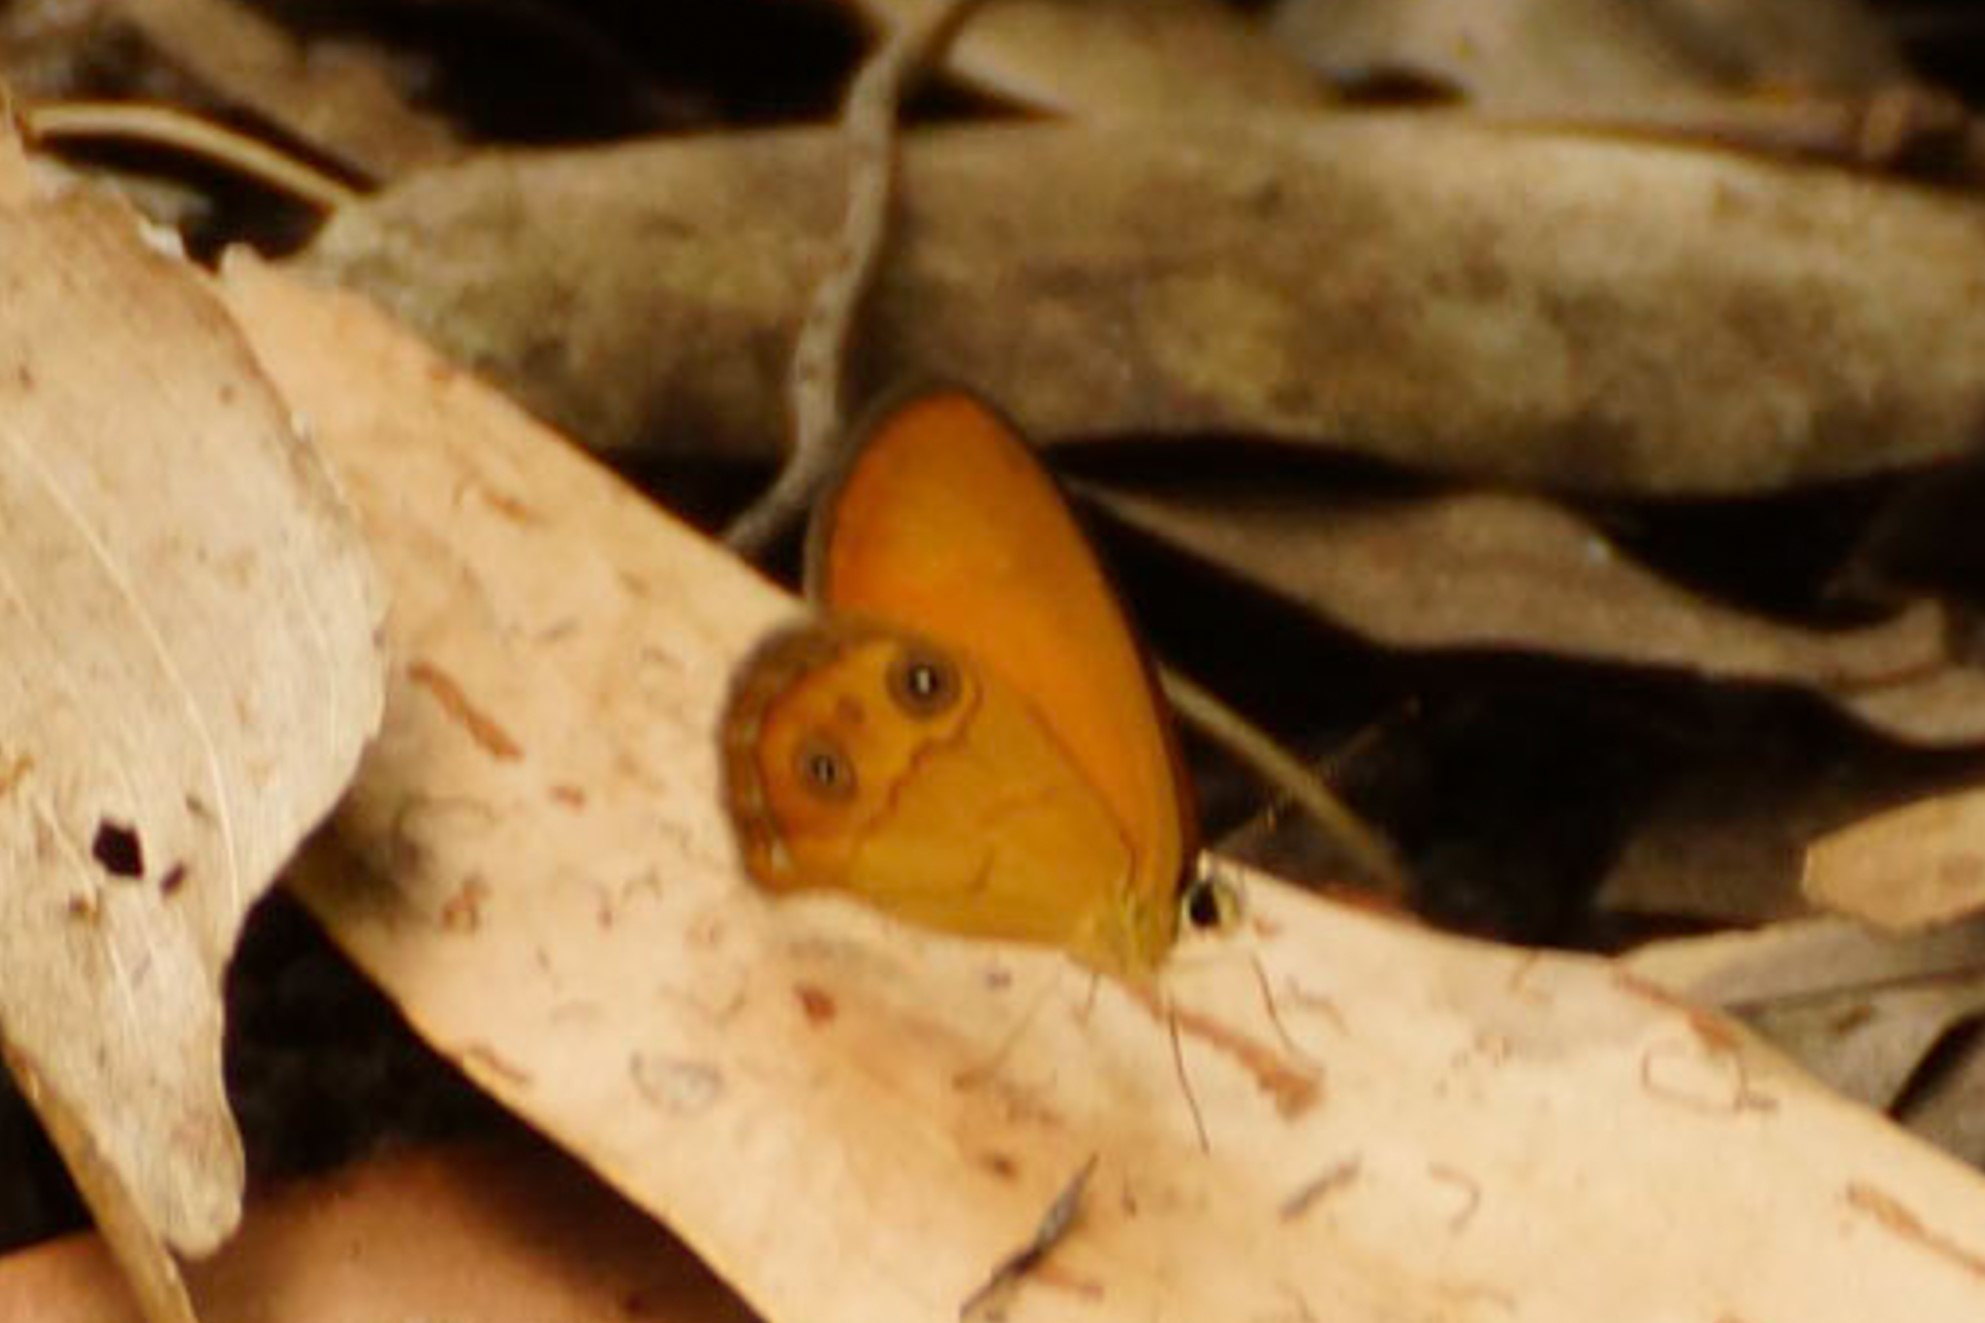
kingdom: Animalia
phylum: Arthropoda
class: Insecta
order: Lepidoptera
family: Nymphalidae
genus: Hypocysta
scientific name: Hypocysta adiante
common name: Orange ringlet
